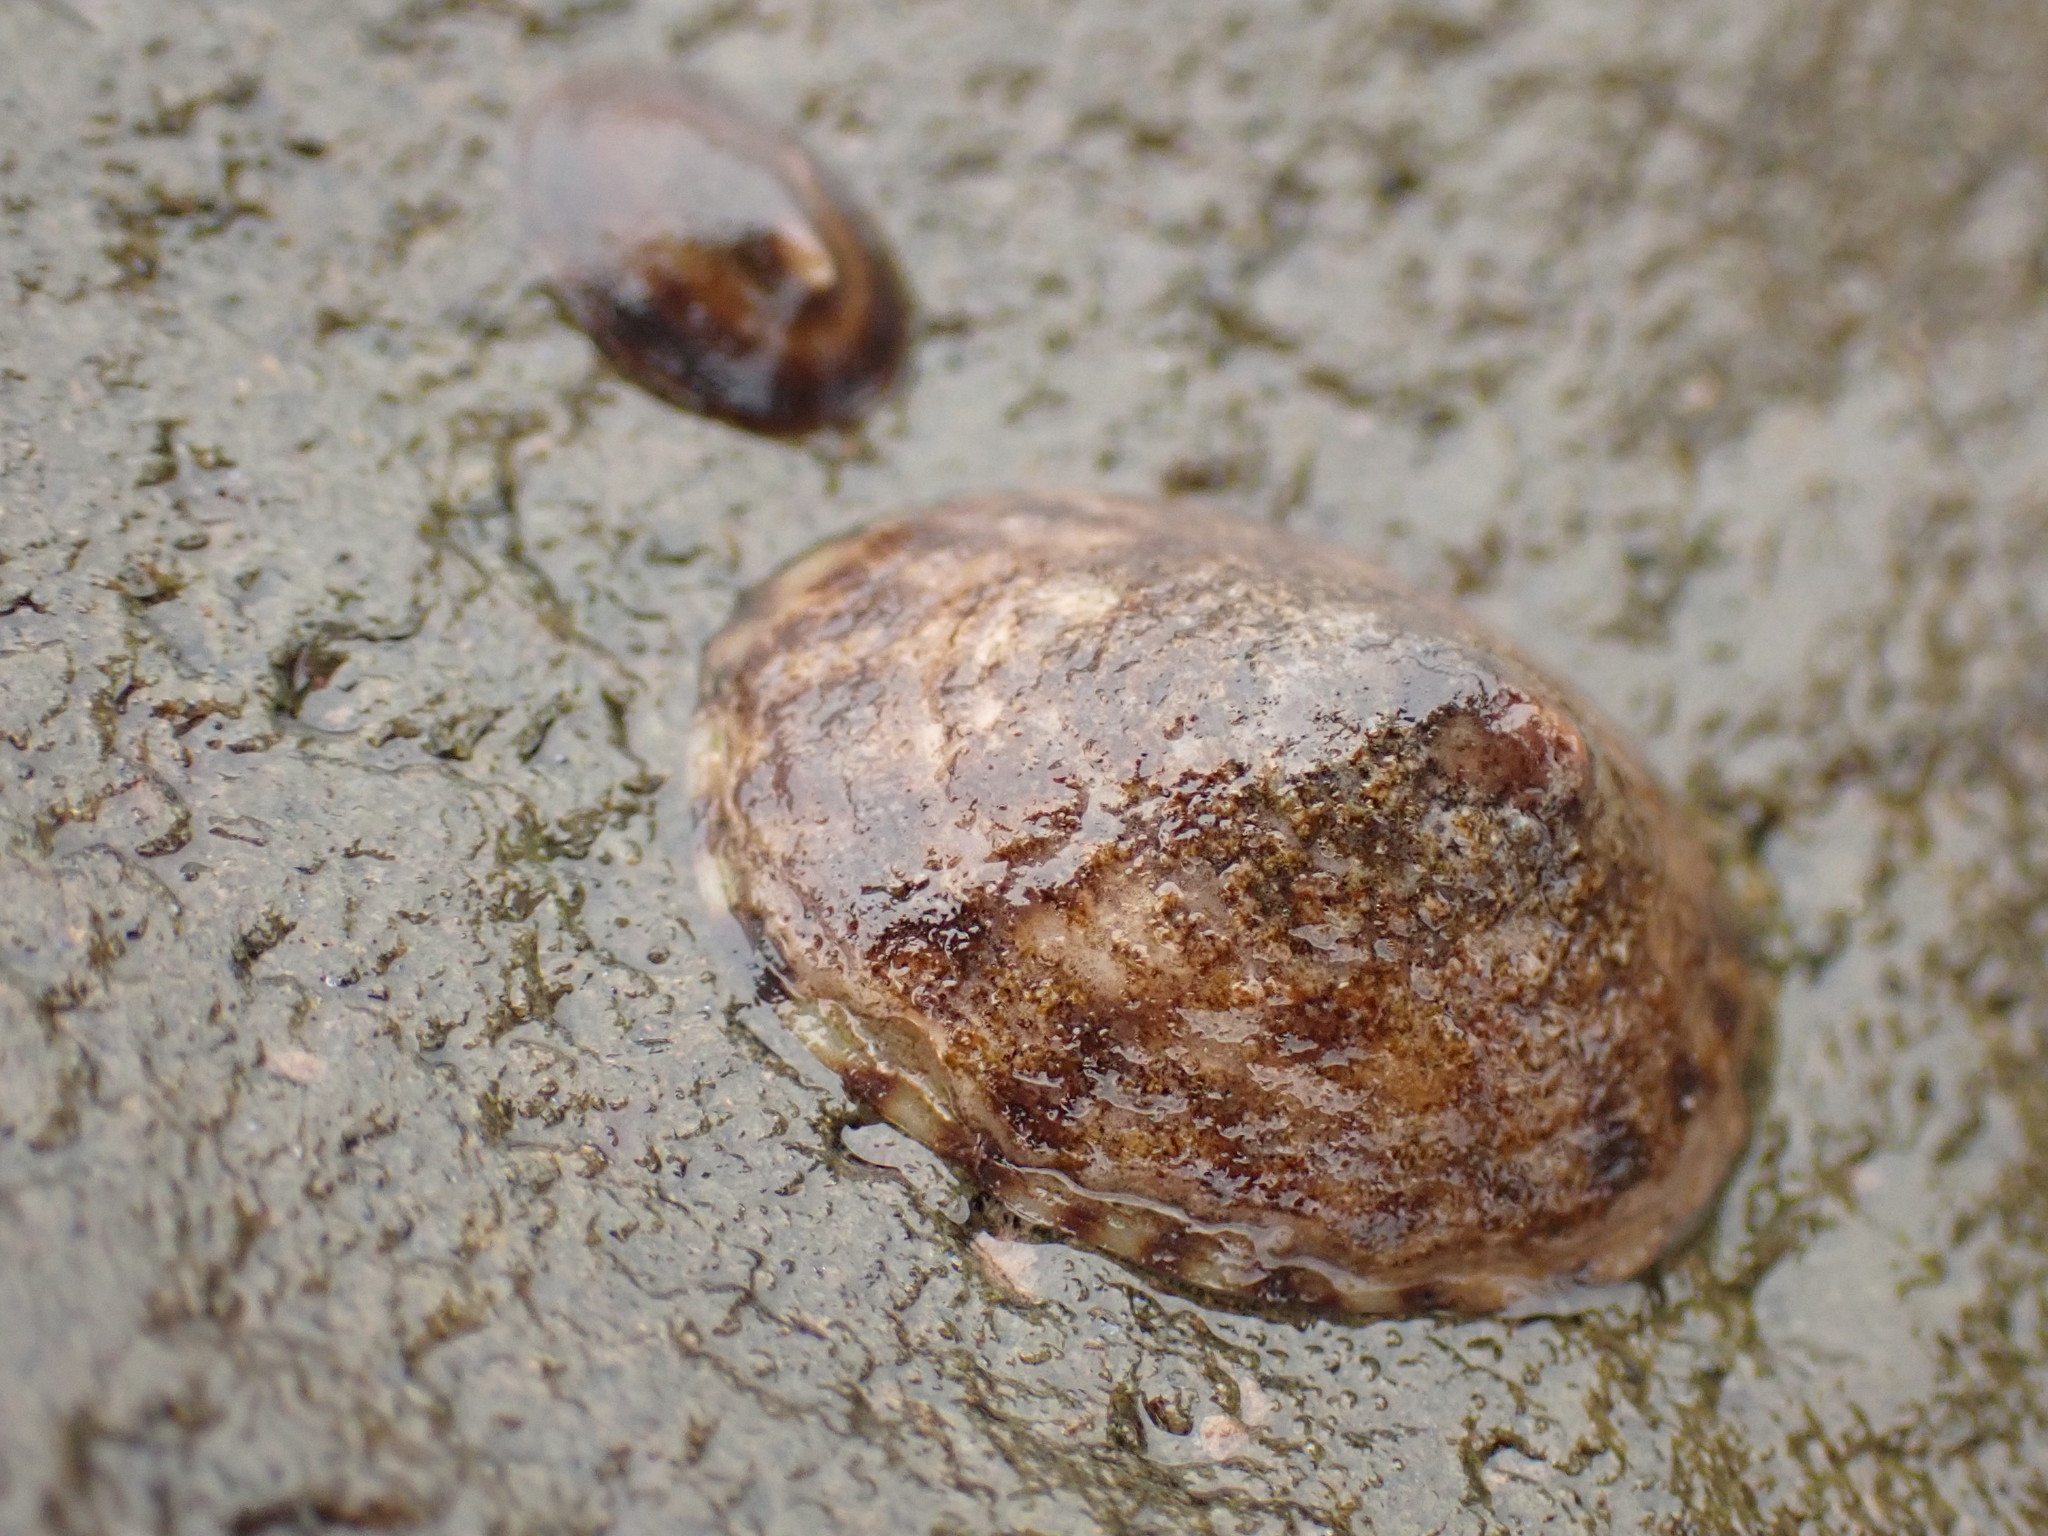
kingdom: Animalia
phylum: Mollusca
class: Gastropoda
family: Lottiidae
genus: Testudinalia
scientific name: Testudinalia testudinalis
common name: Common tortoiseshell limpet
